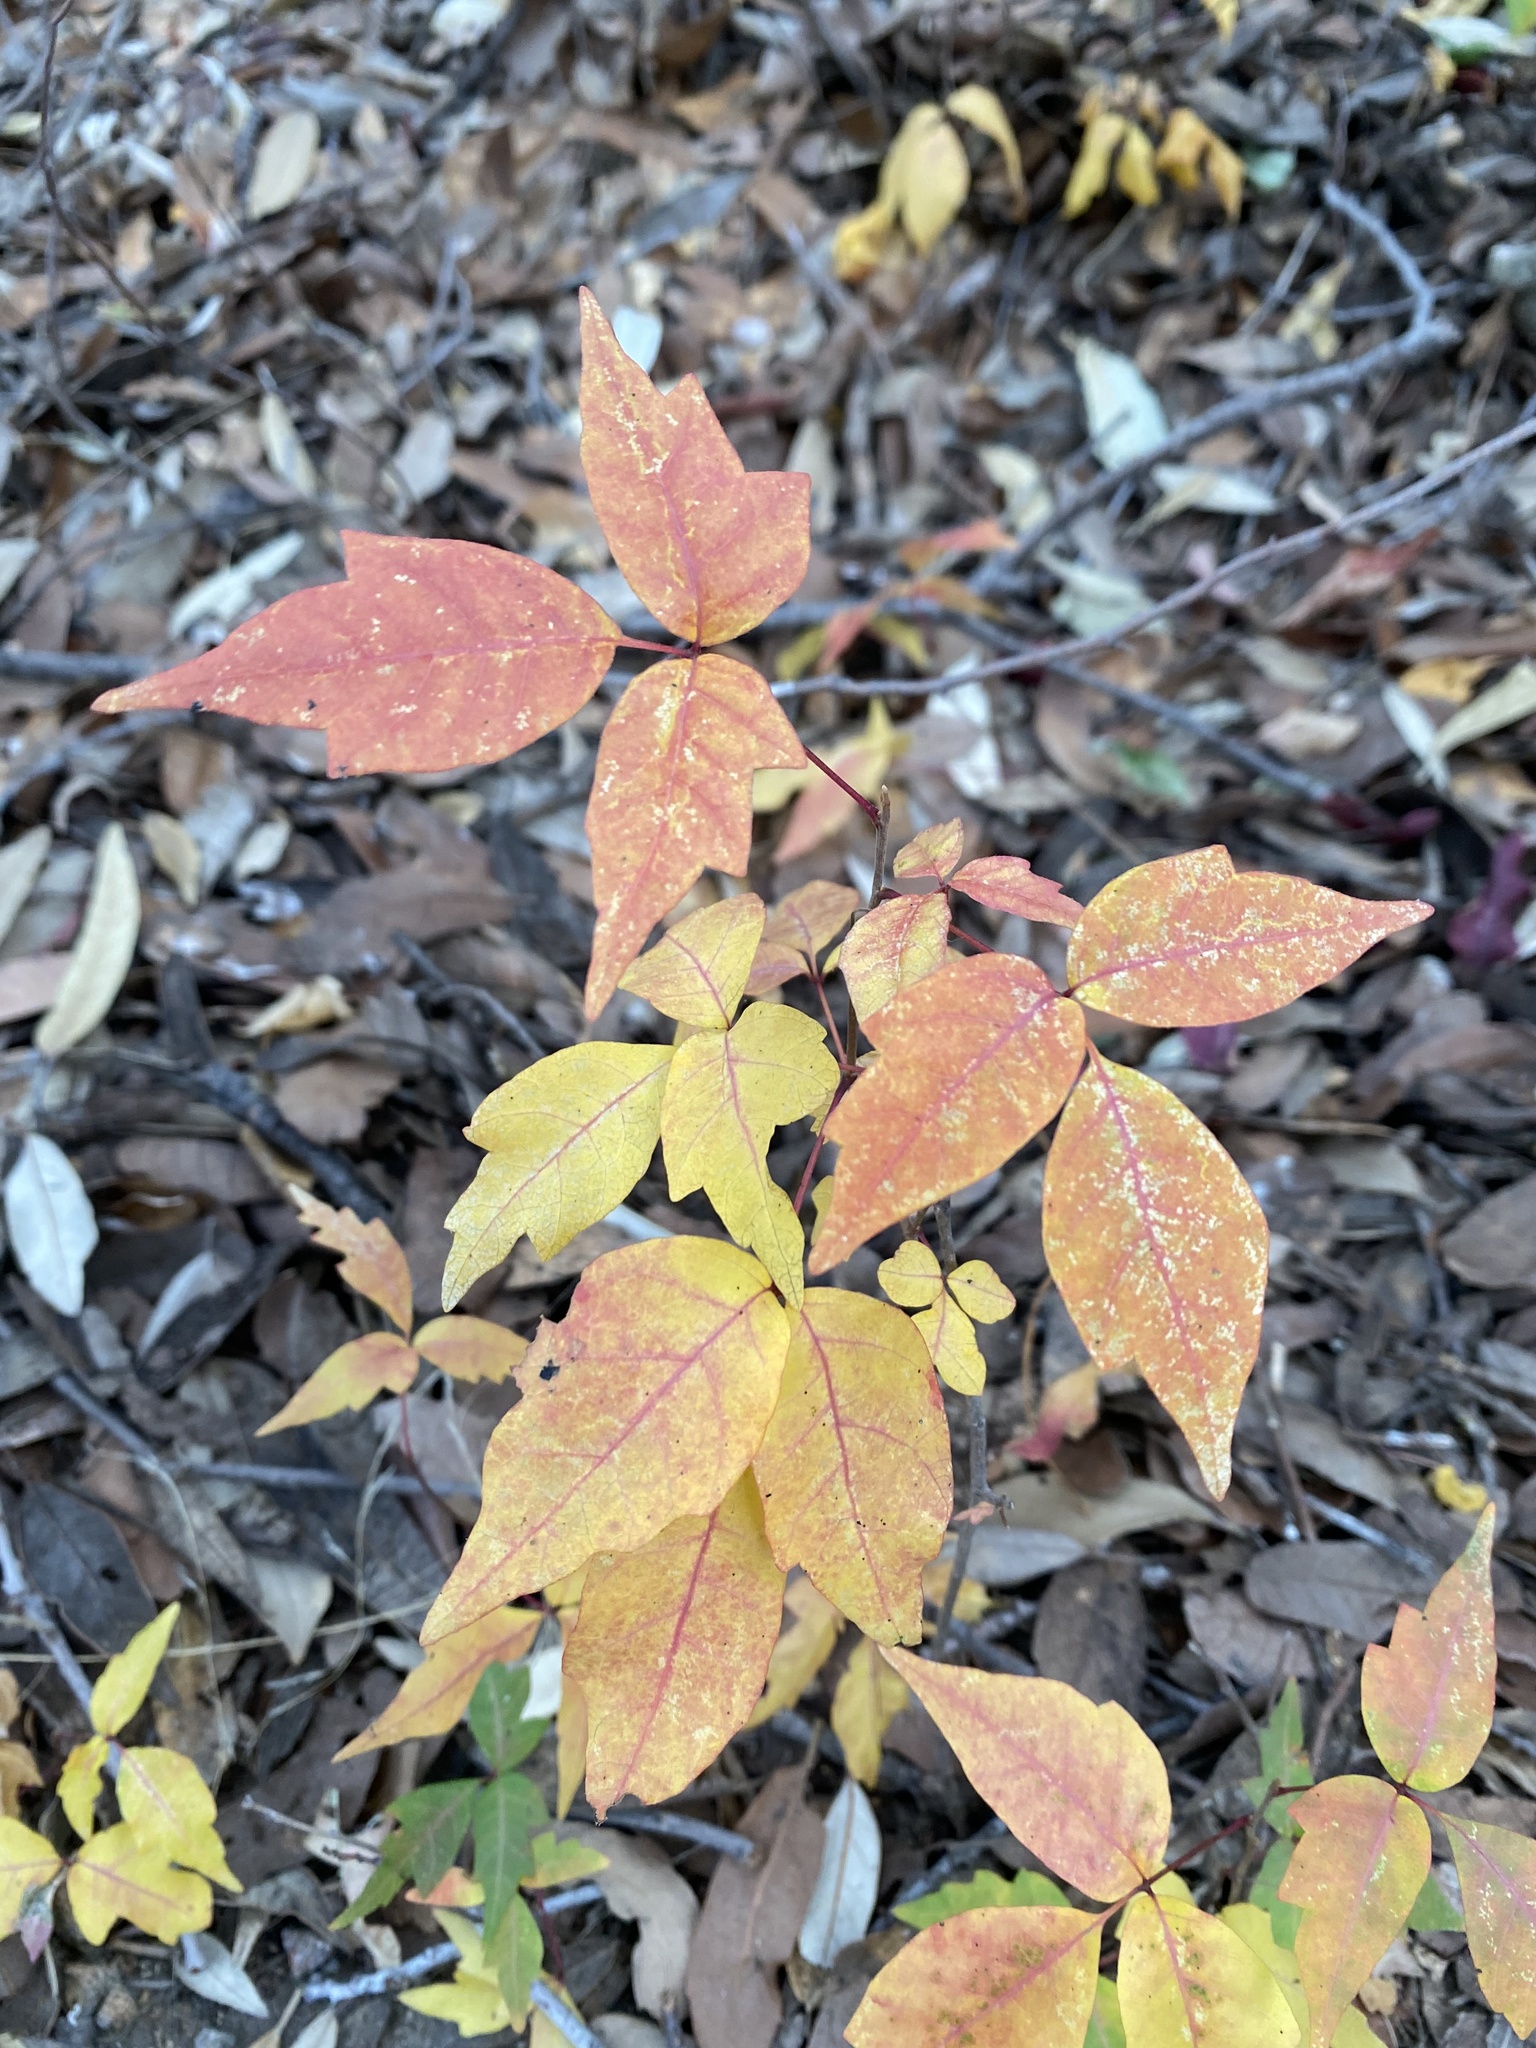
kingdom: Plantae
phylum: Tracheophyta
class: Magnoliopsida
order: Sapindales
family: Anacardiaceae
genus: Toxicodendron
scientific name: Toxicodendron radicans
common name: Poison ivy
